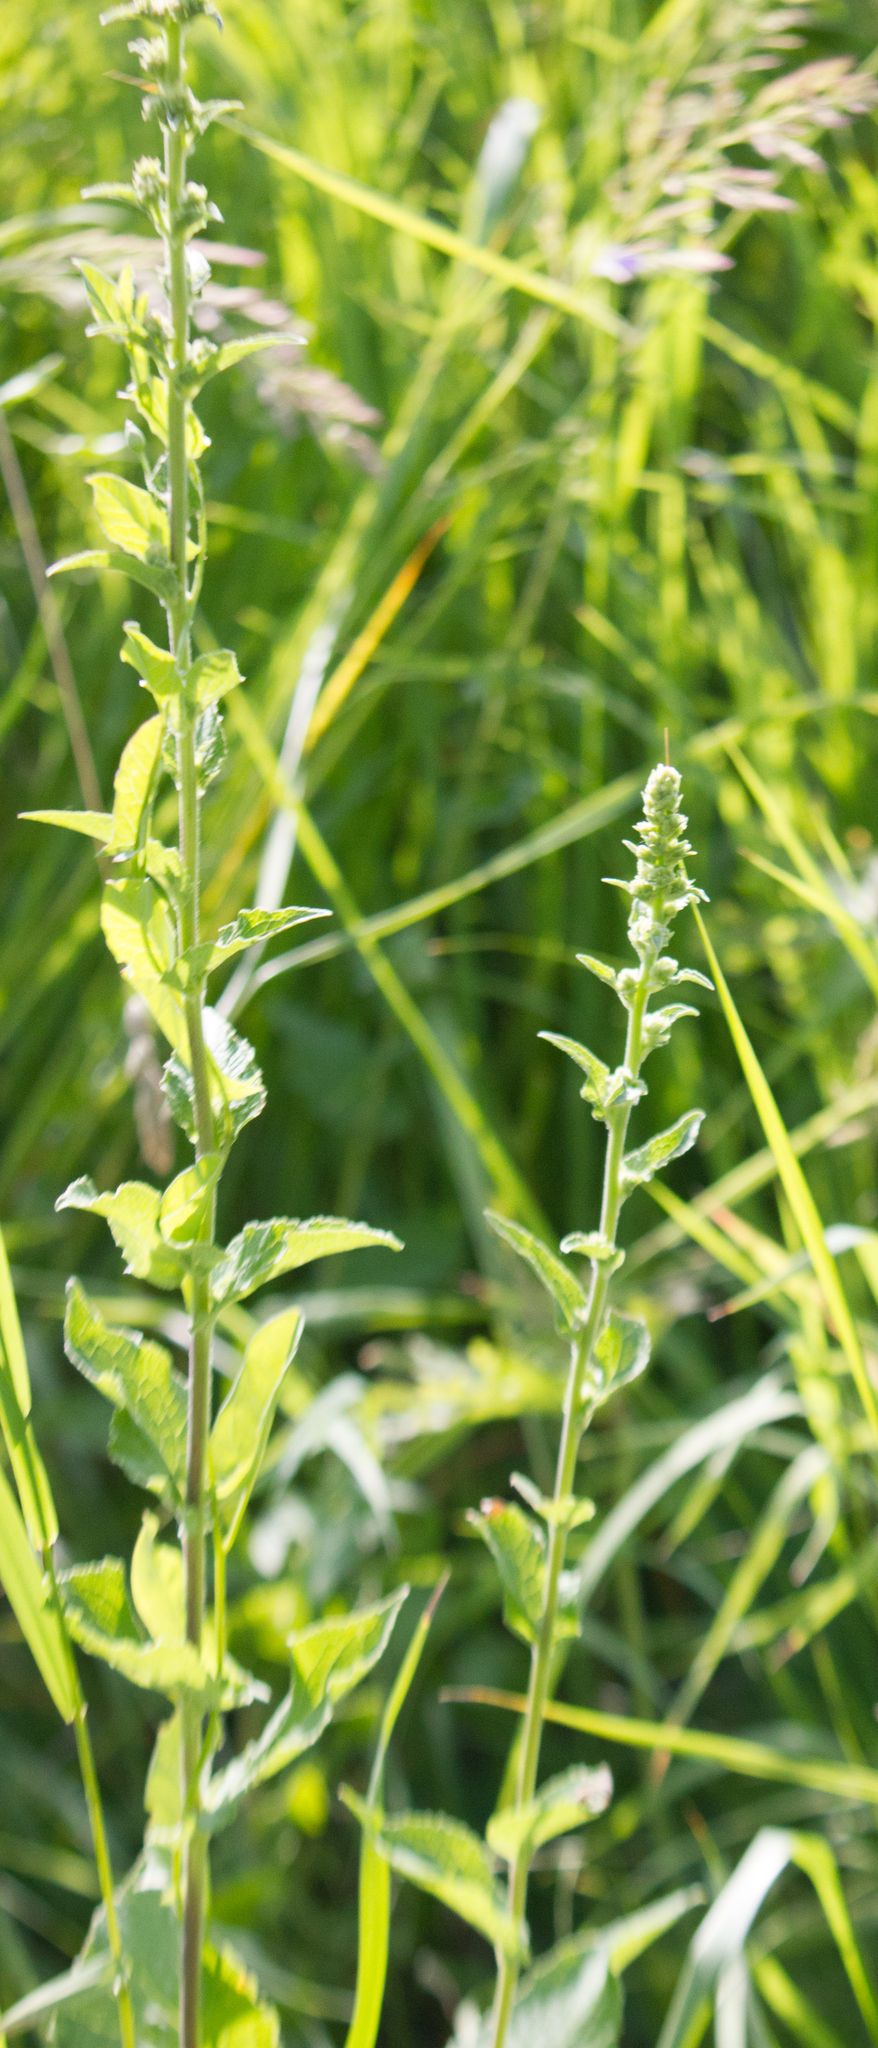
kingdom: Plantae
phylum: Tracheophyta
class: Magnoliopsida
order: Asterales
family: Campanulaceae
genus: Campanula
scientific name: Campanula bononiensis
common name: Pale bellflower
